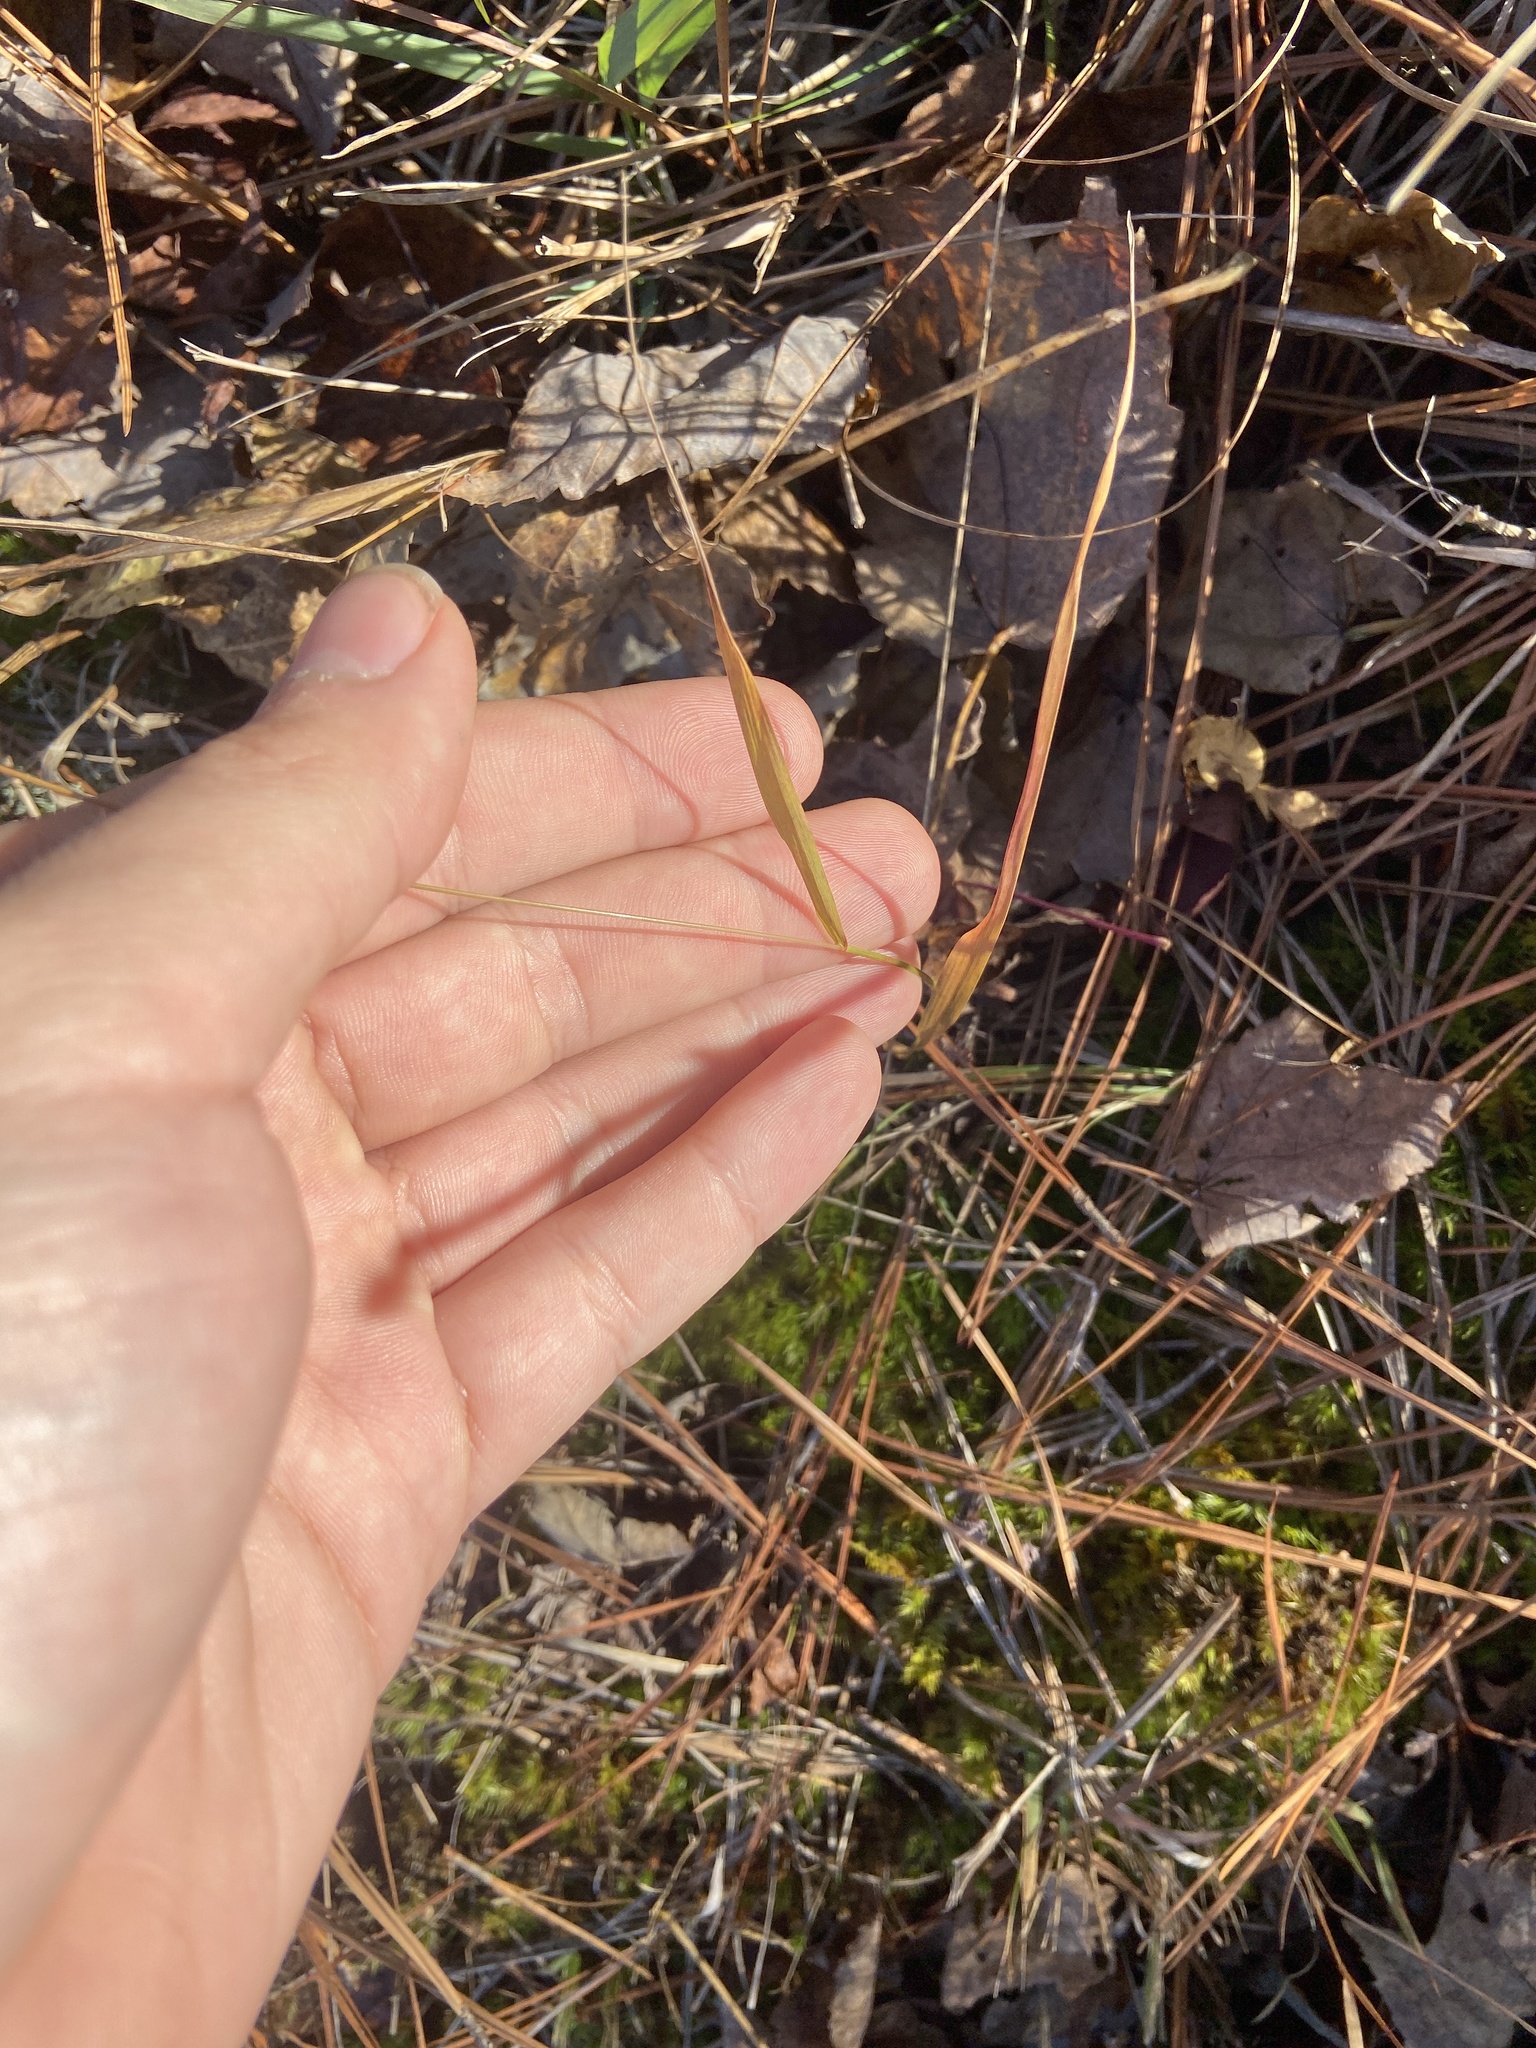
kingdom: Plantae
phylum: Tracheophyta
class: Liliopsida
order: Poales
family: Poaceae
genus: Chasmanthium
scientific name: Chasmanthium laxum
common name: Slender chasmanthium
